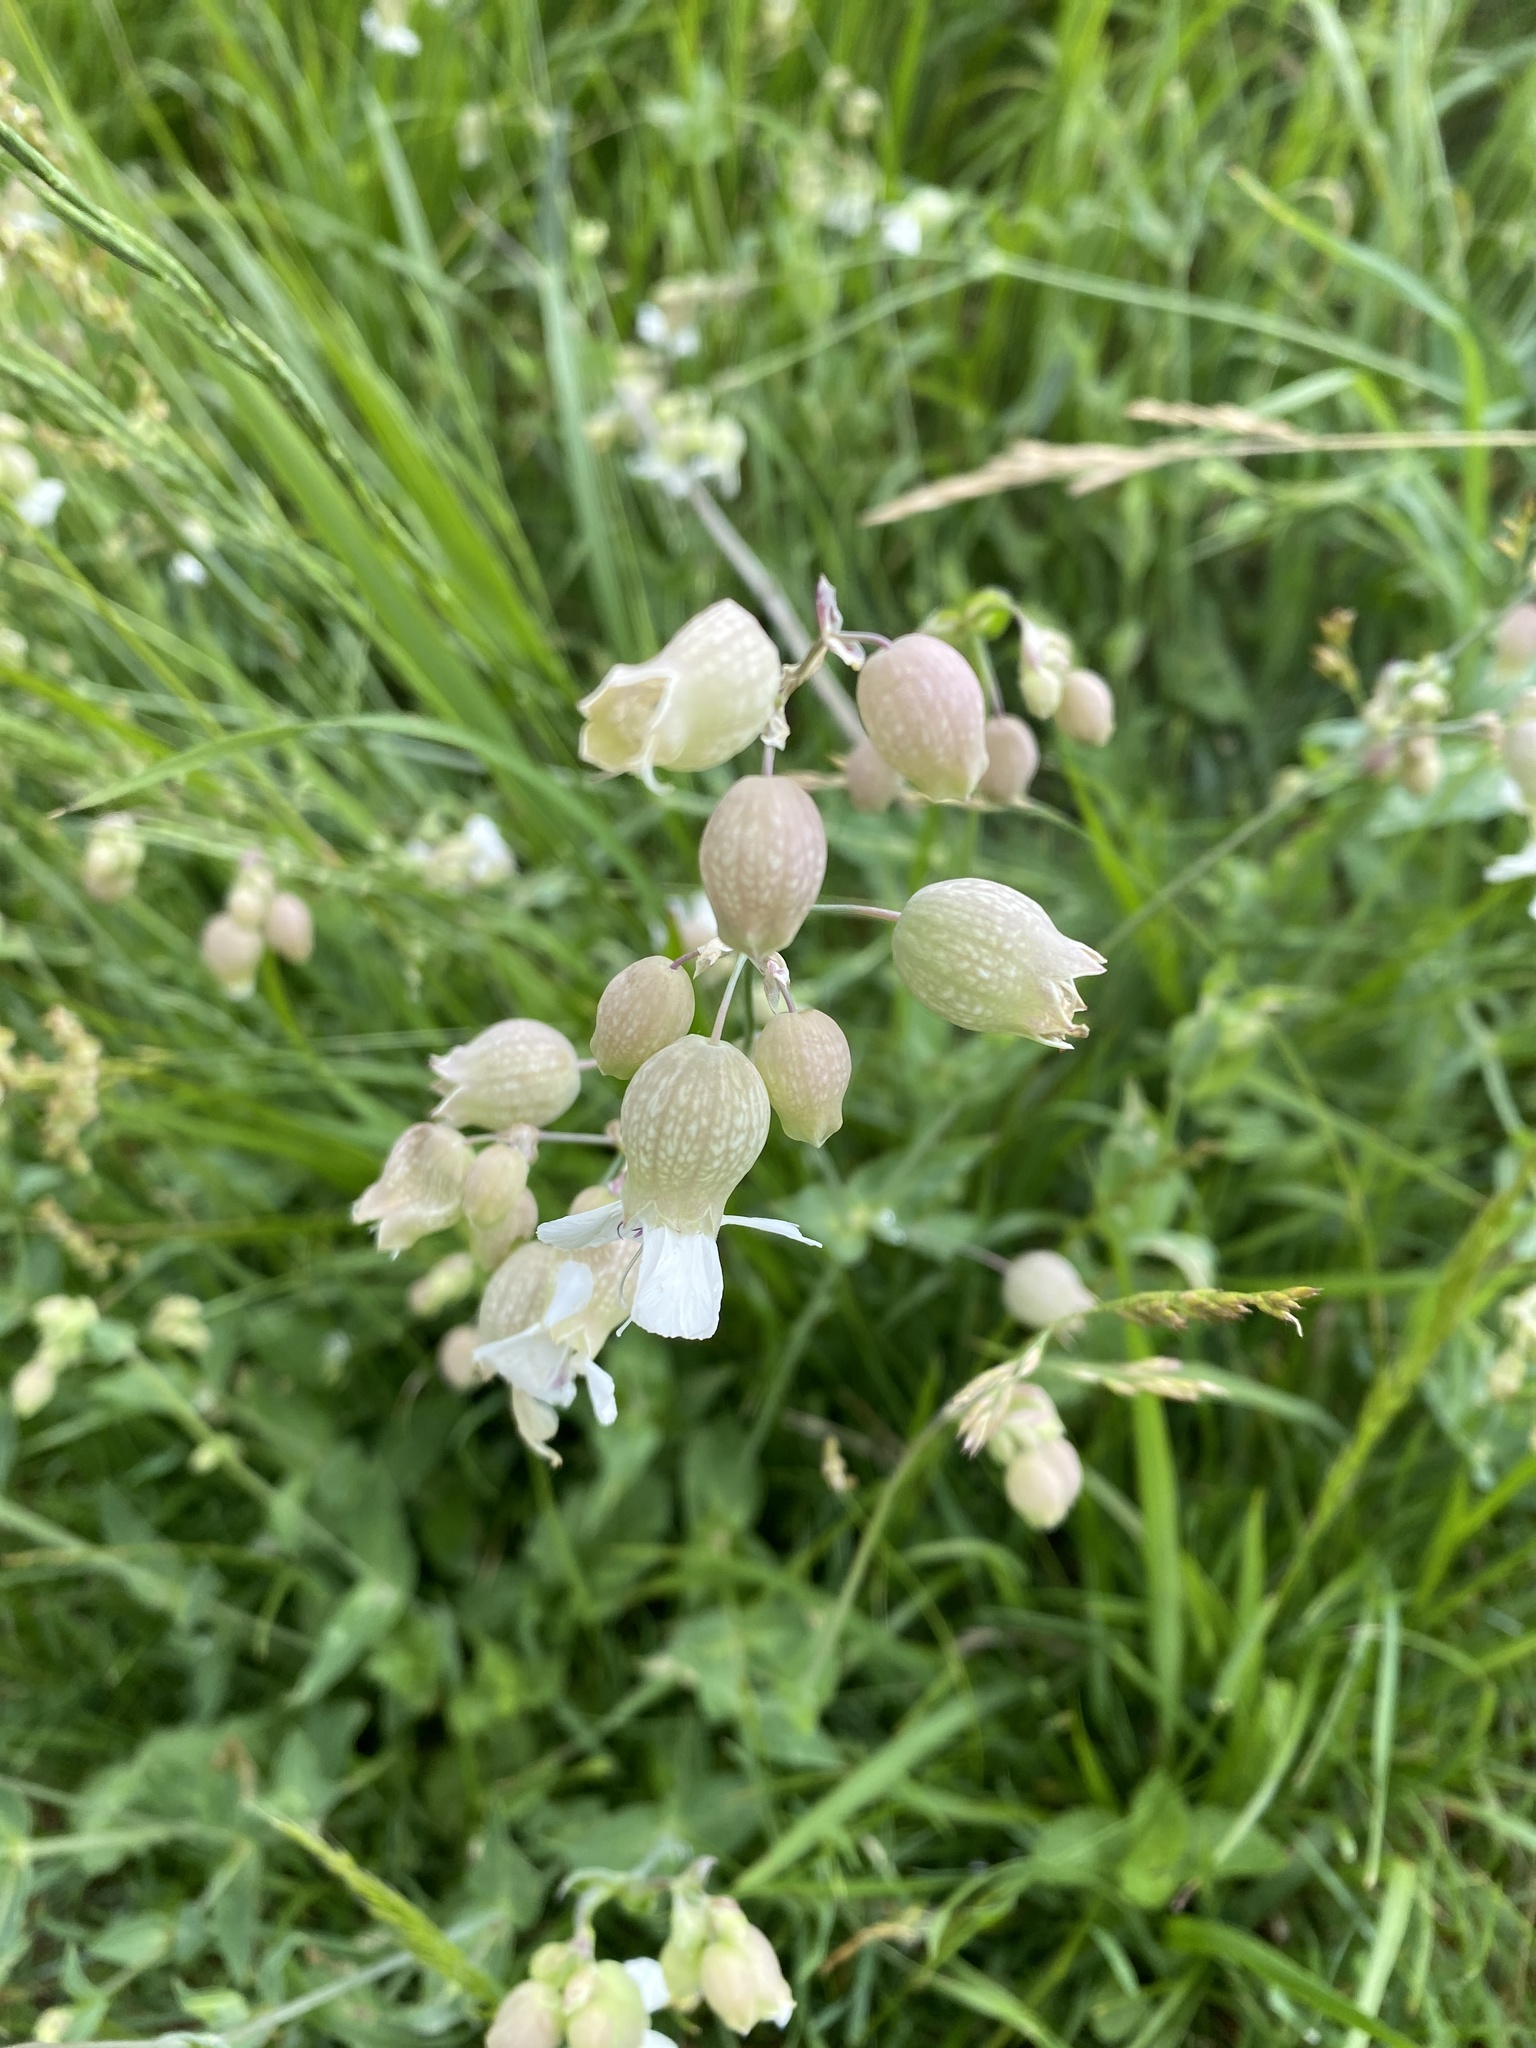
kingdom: Plantae
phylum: Tracheophyta
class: Magnoliopsida
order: Caryophyllales
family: Caryophyllaceae
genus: Silene
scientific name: Silene vulgaris
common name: Bladder campion
